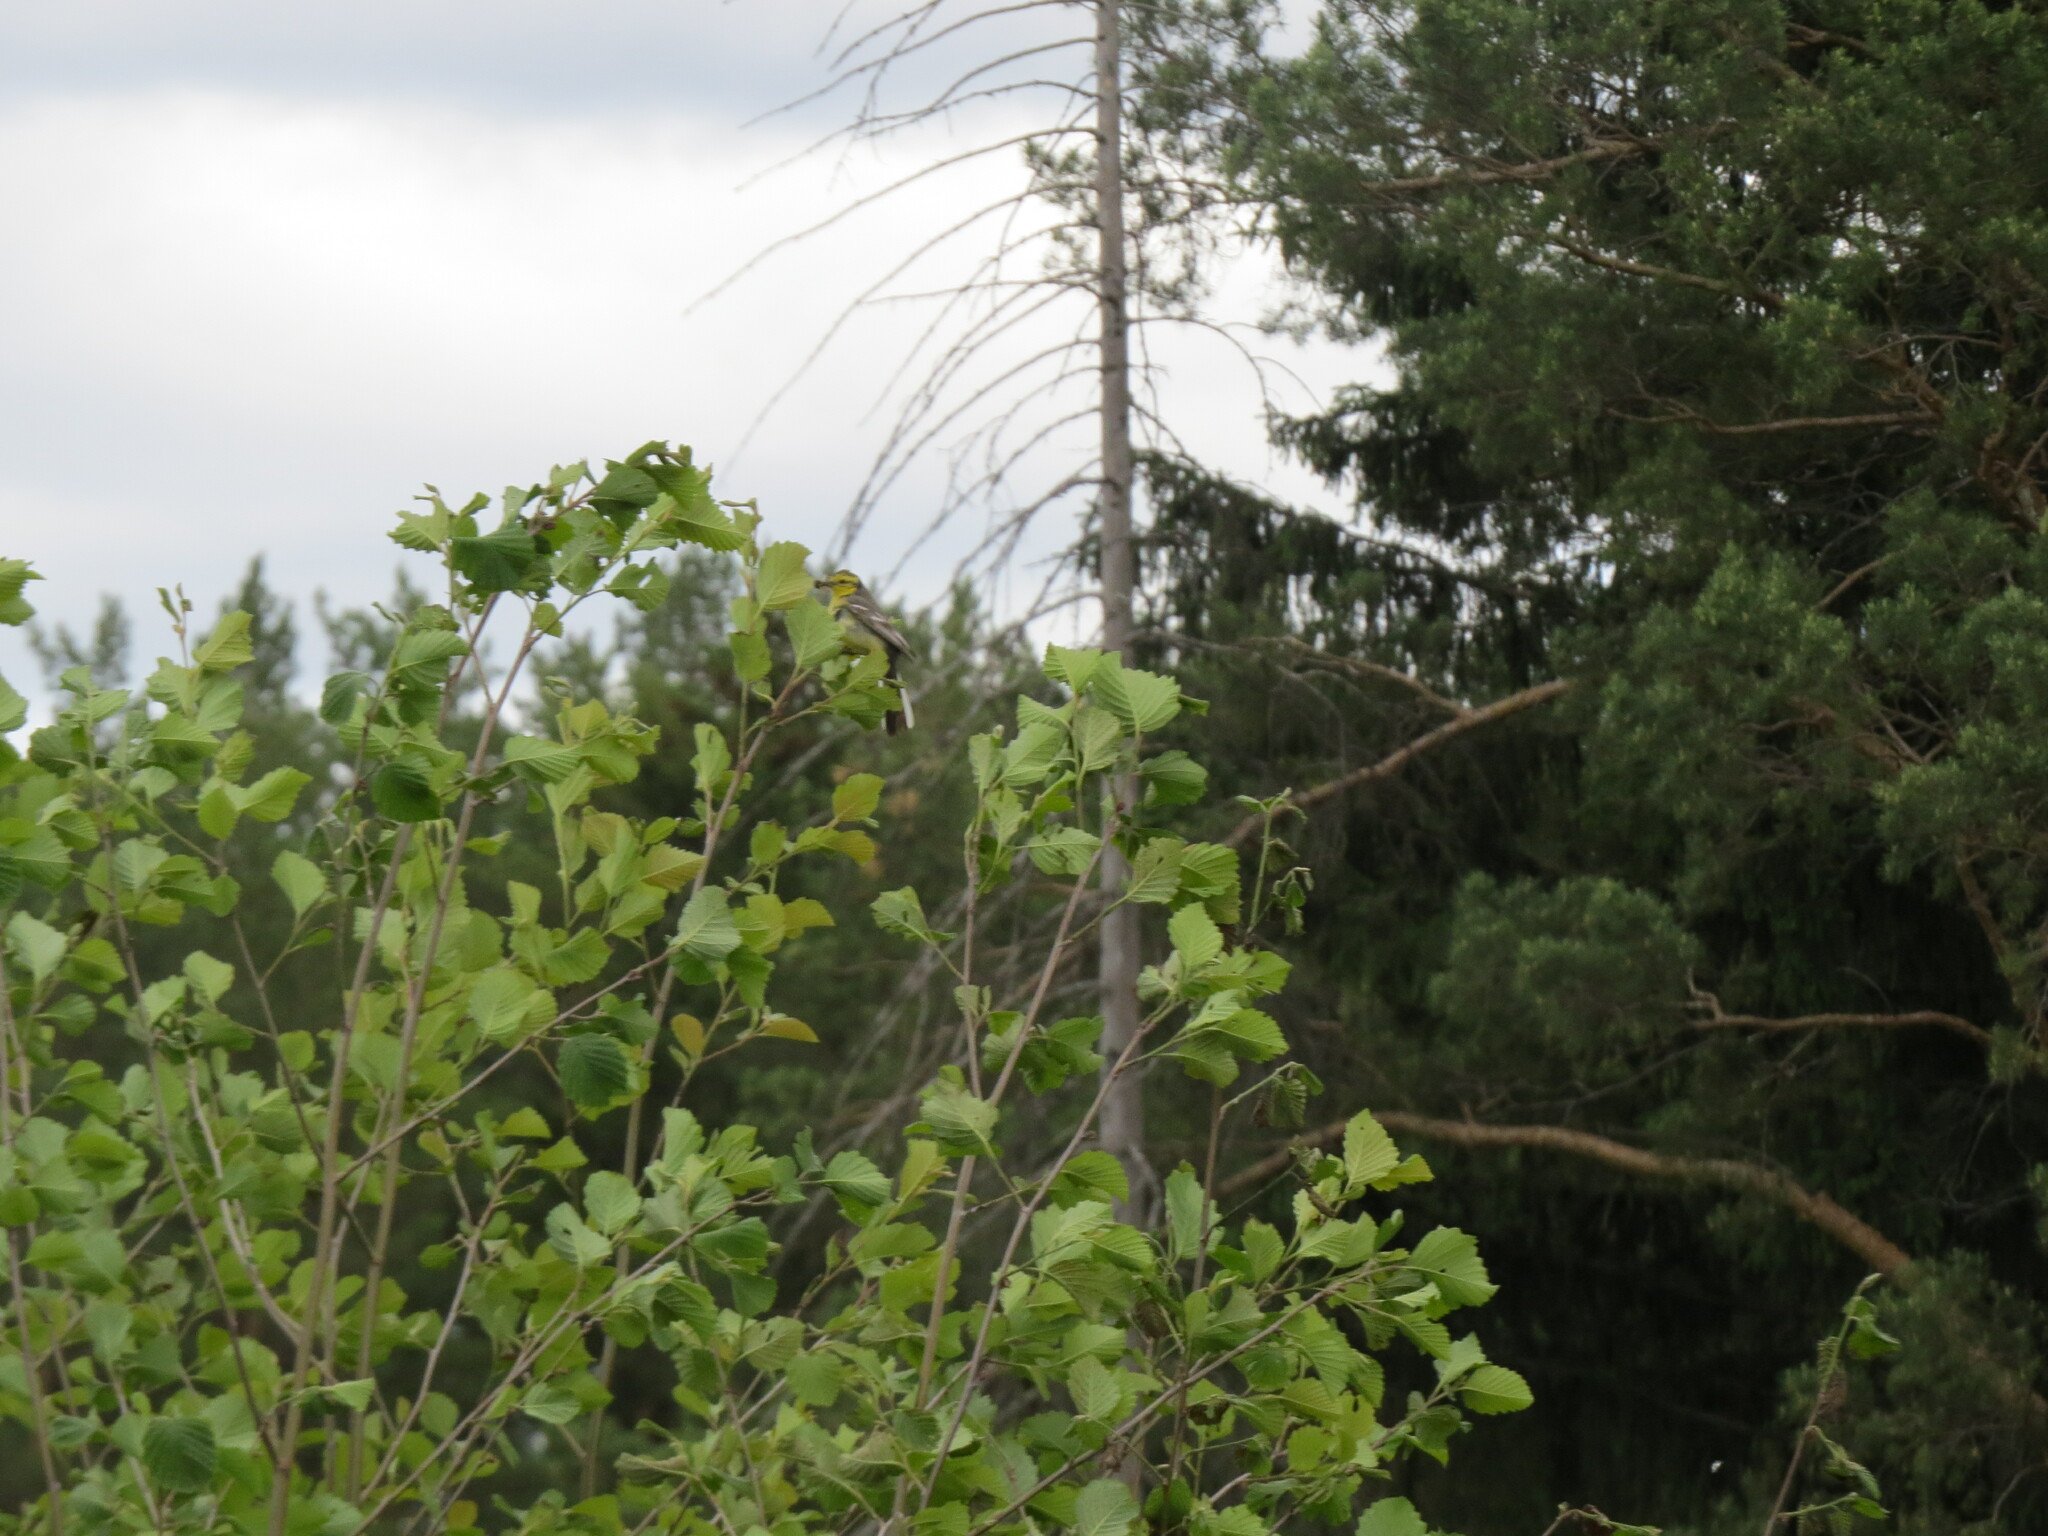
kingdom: Animalia
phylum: Chordata
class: Aves
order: Passeriformes
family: Motacillidae
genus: Motacilla
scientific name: Motacilla citreola
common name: Citrine wagtail
